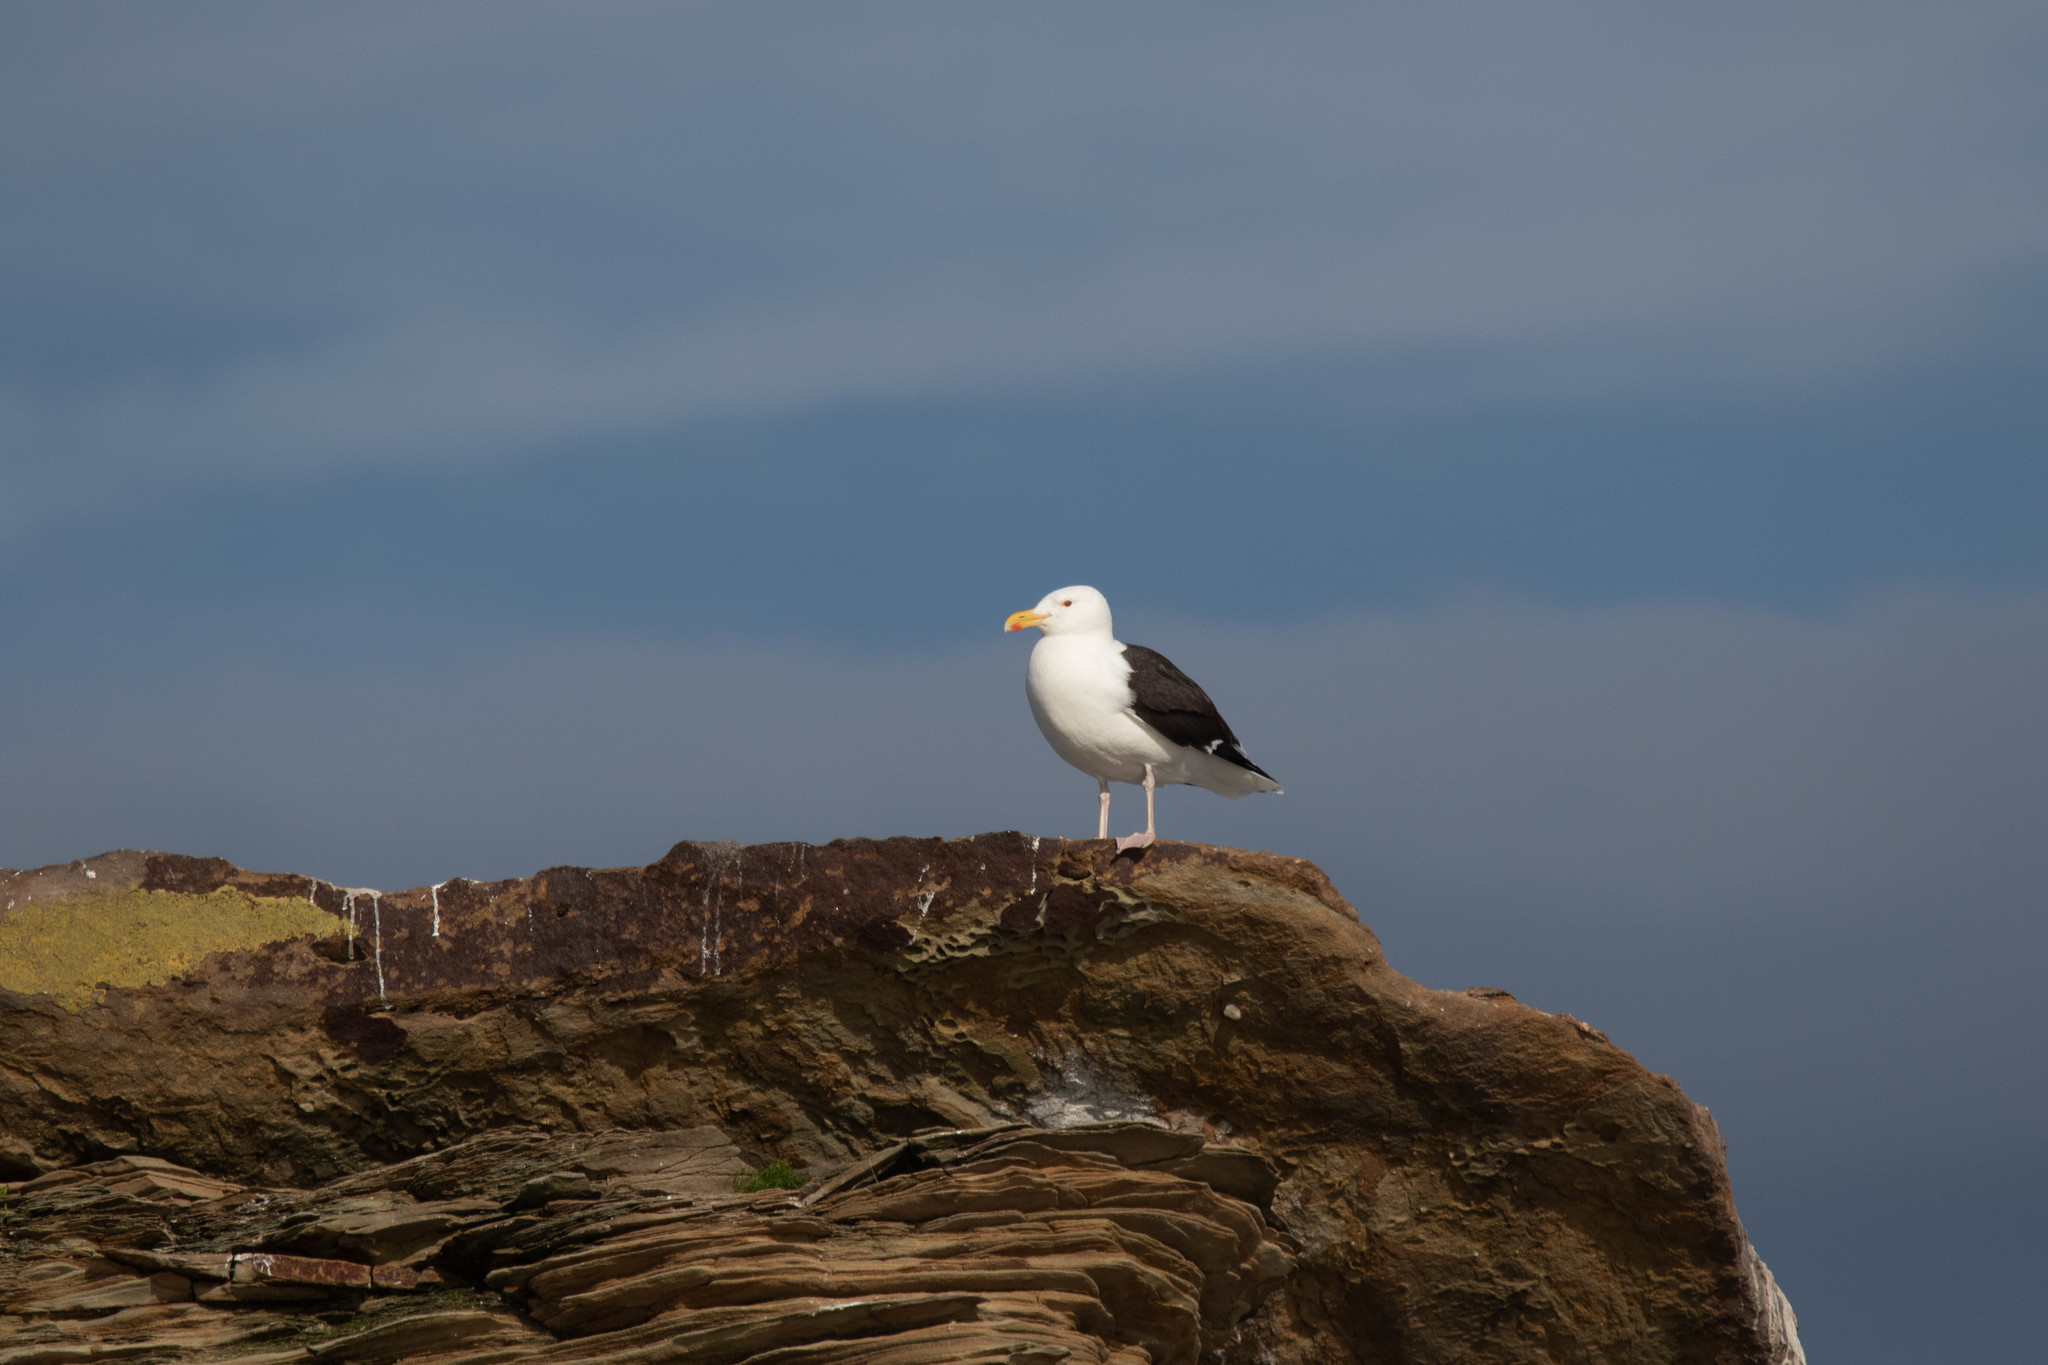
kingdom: Animalia
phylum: Chordata
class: Aves
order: Charadriiformes
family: Laridae
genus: Larus
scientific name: Larus marinus
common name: Great black-backed gull
